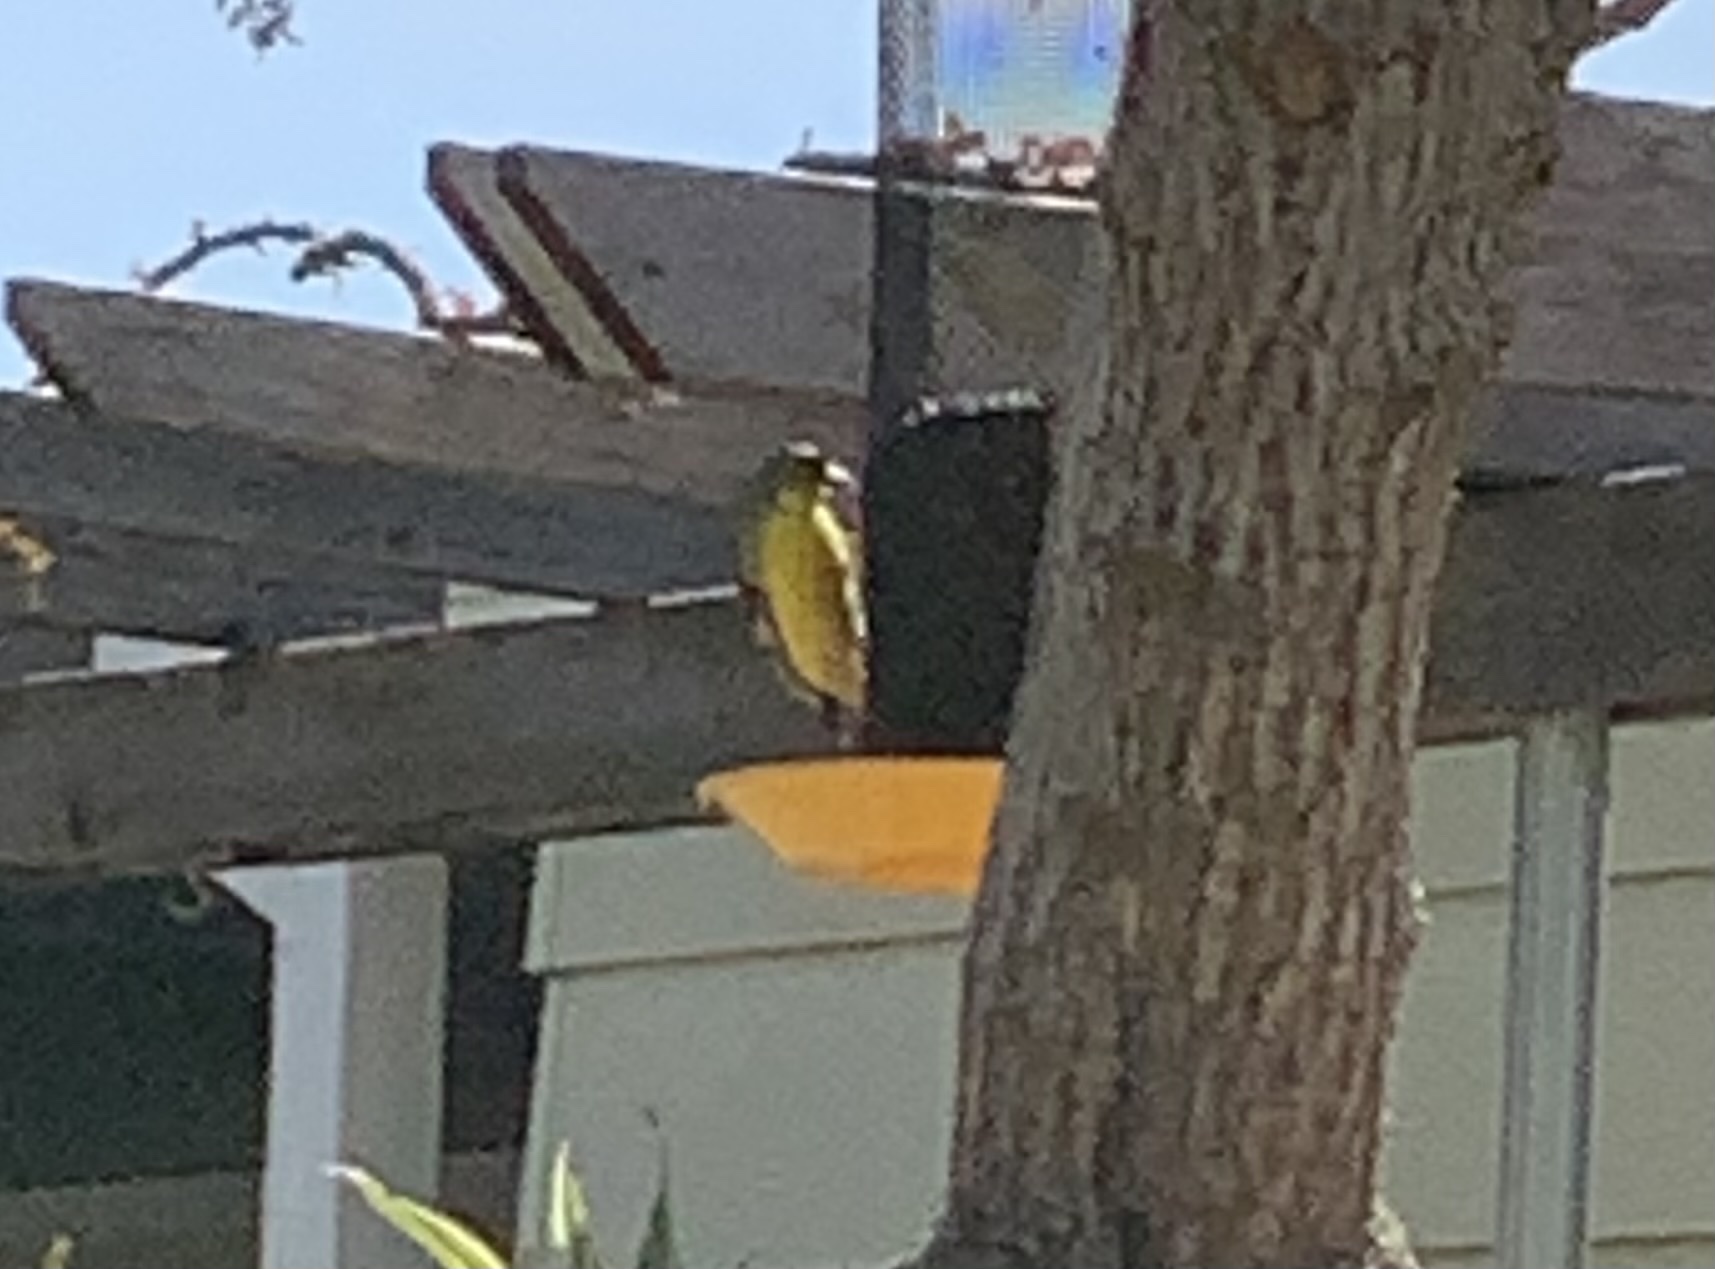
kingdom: Animalia
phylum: Chordata
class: Aves
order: Passeriformes
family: Fringillidae
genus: Spinus
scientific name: Spinus psaltria
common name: Lesser goldfinch
